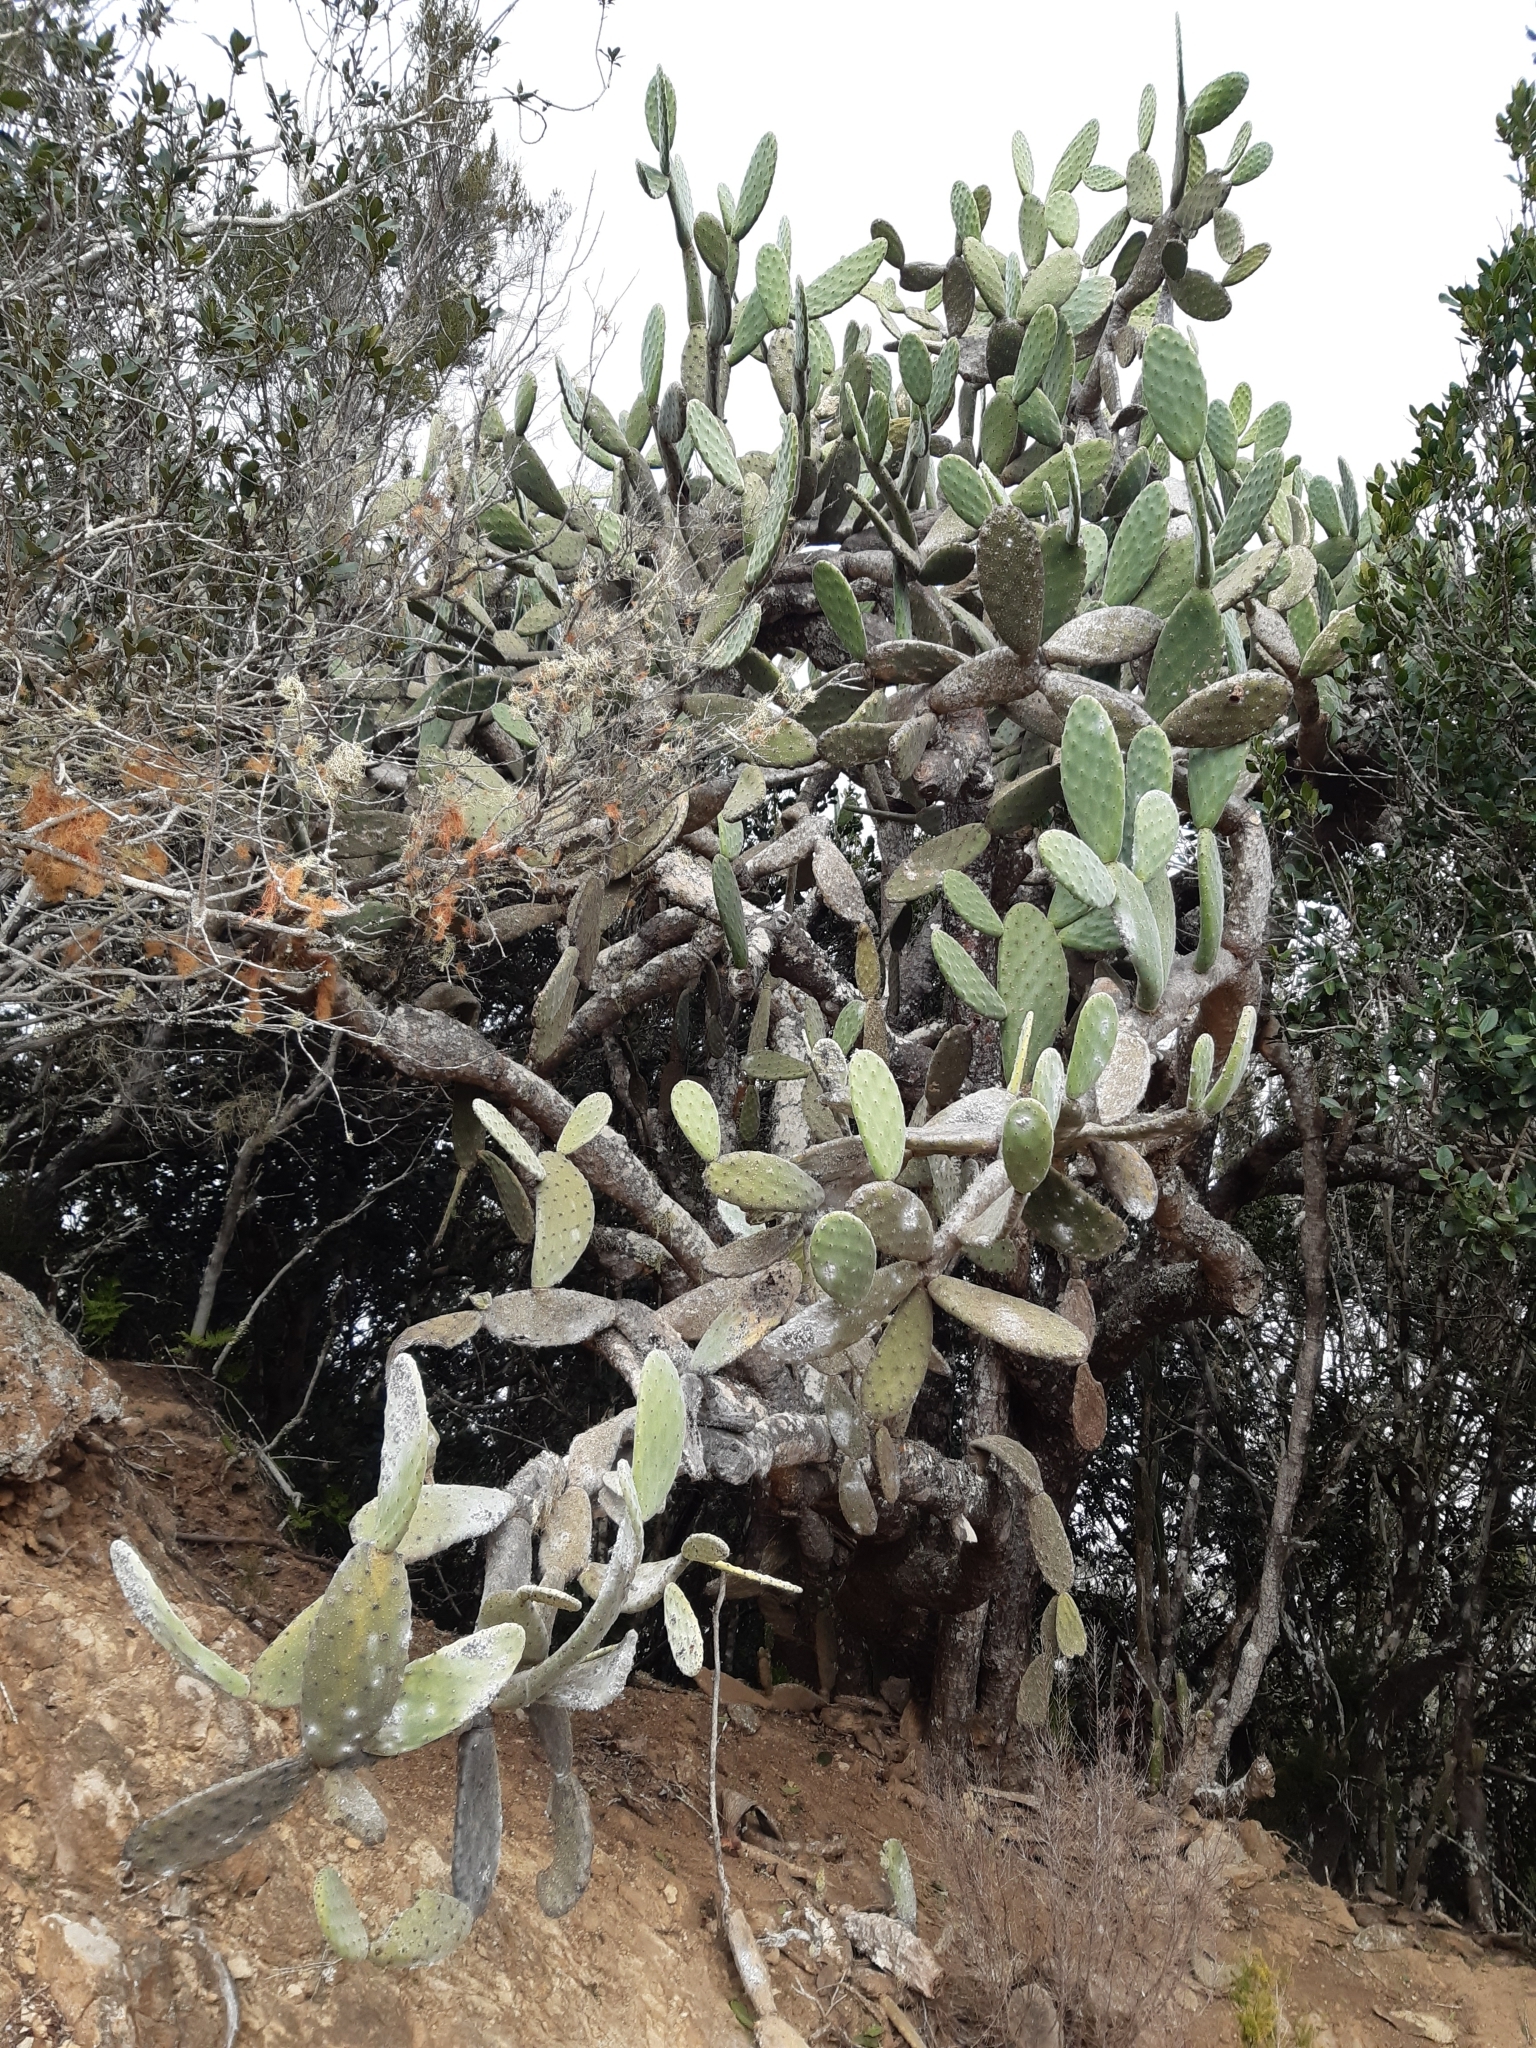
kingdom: Plantae
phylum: Tracheophyta
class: Magnoliopsida
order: Caryophyllales
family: Cactaceae
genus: Opuntia
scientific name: Opuntia ficus-indica
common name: Barbary fig
